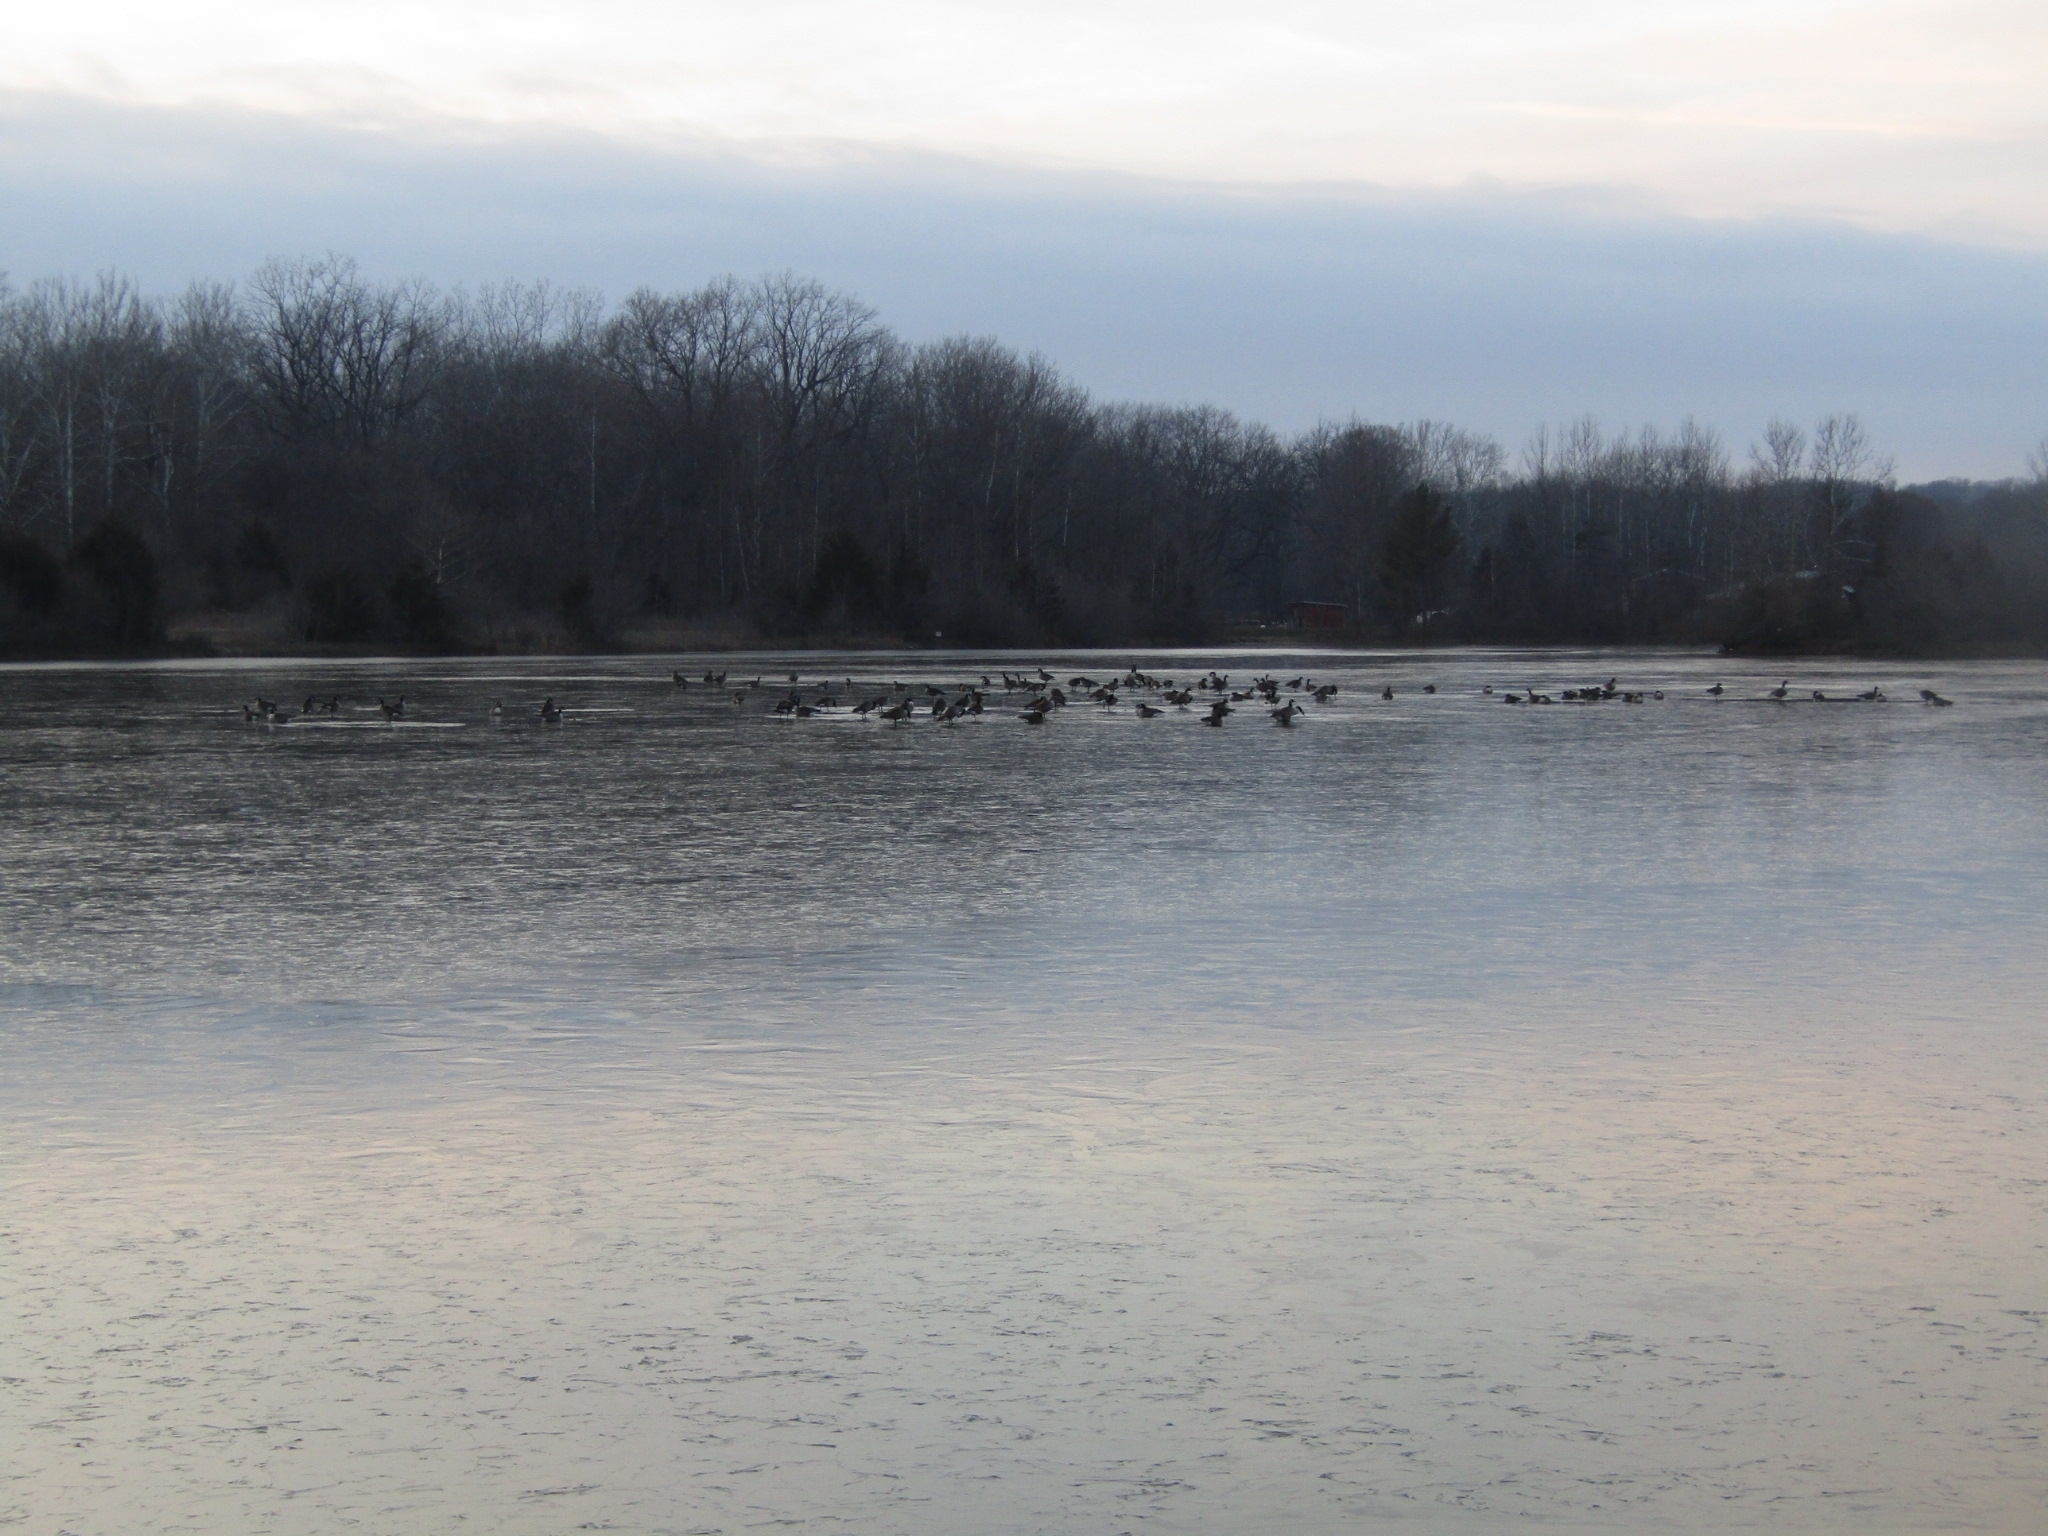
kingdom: Animalia
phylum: Chordata
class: Aves
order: Anseriformes
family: Anatidae
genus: Branta
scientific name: Branta canadensis
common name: Canada goose
